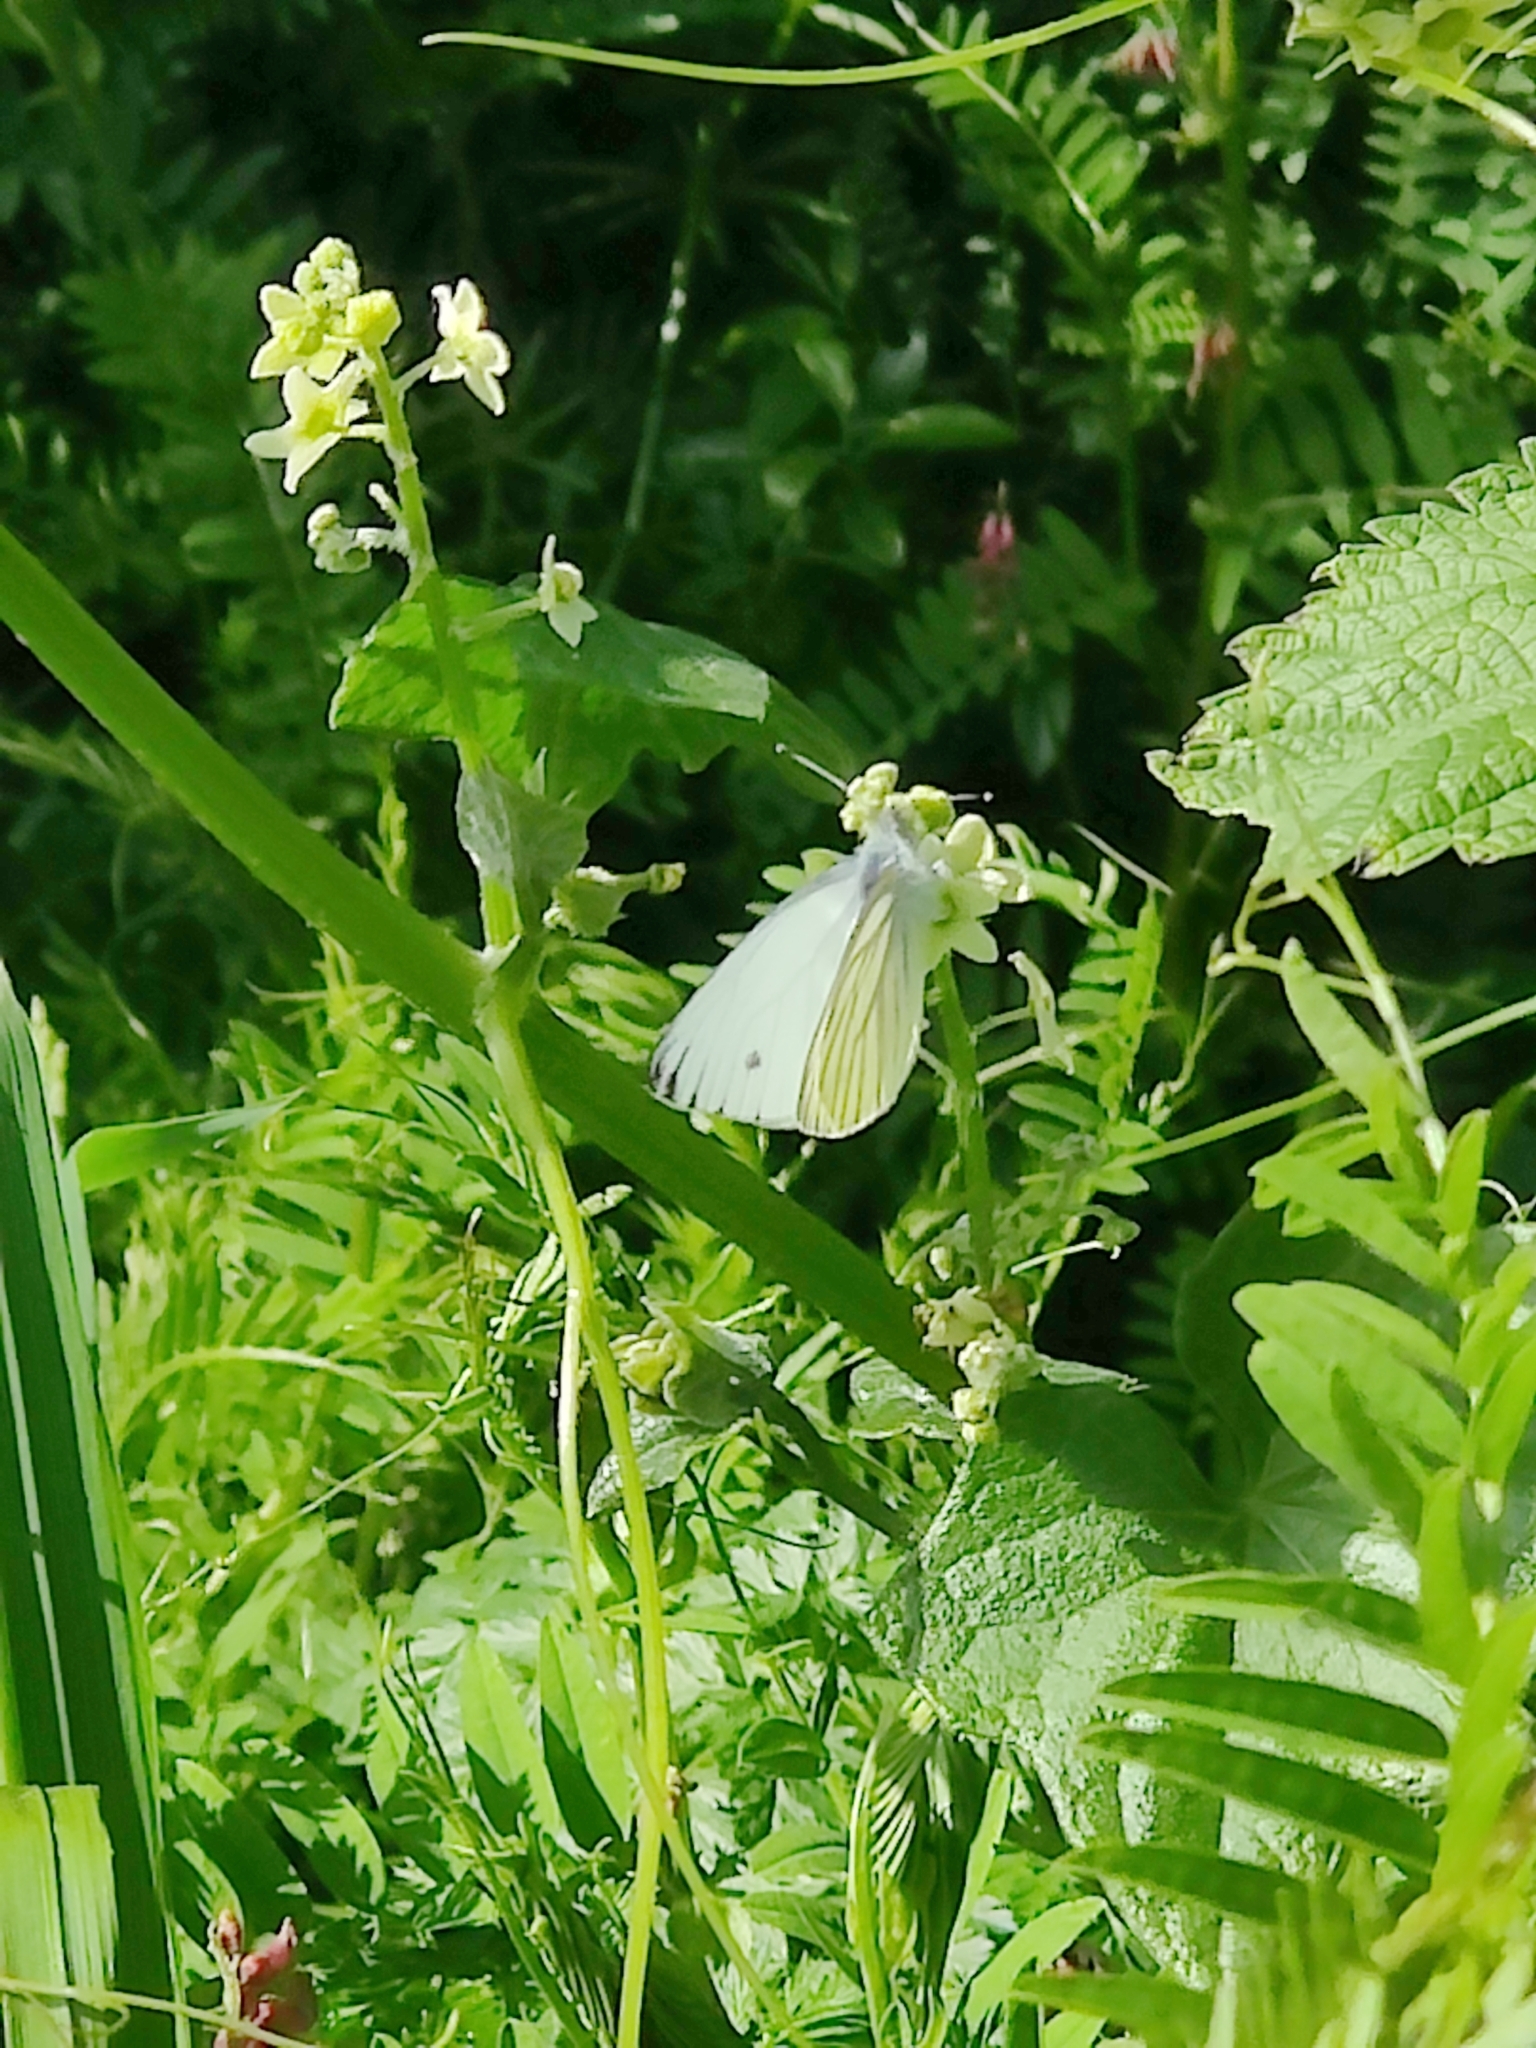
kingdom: Animalia
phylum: Arthropoda
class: Insecta
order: Lepidoptera
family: Pieridae
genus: Pieris
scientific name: Pieris marginalis
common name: Margined white
